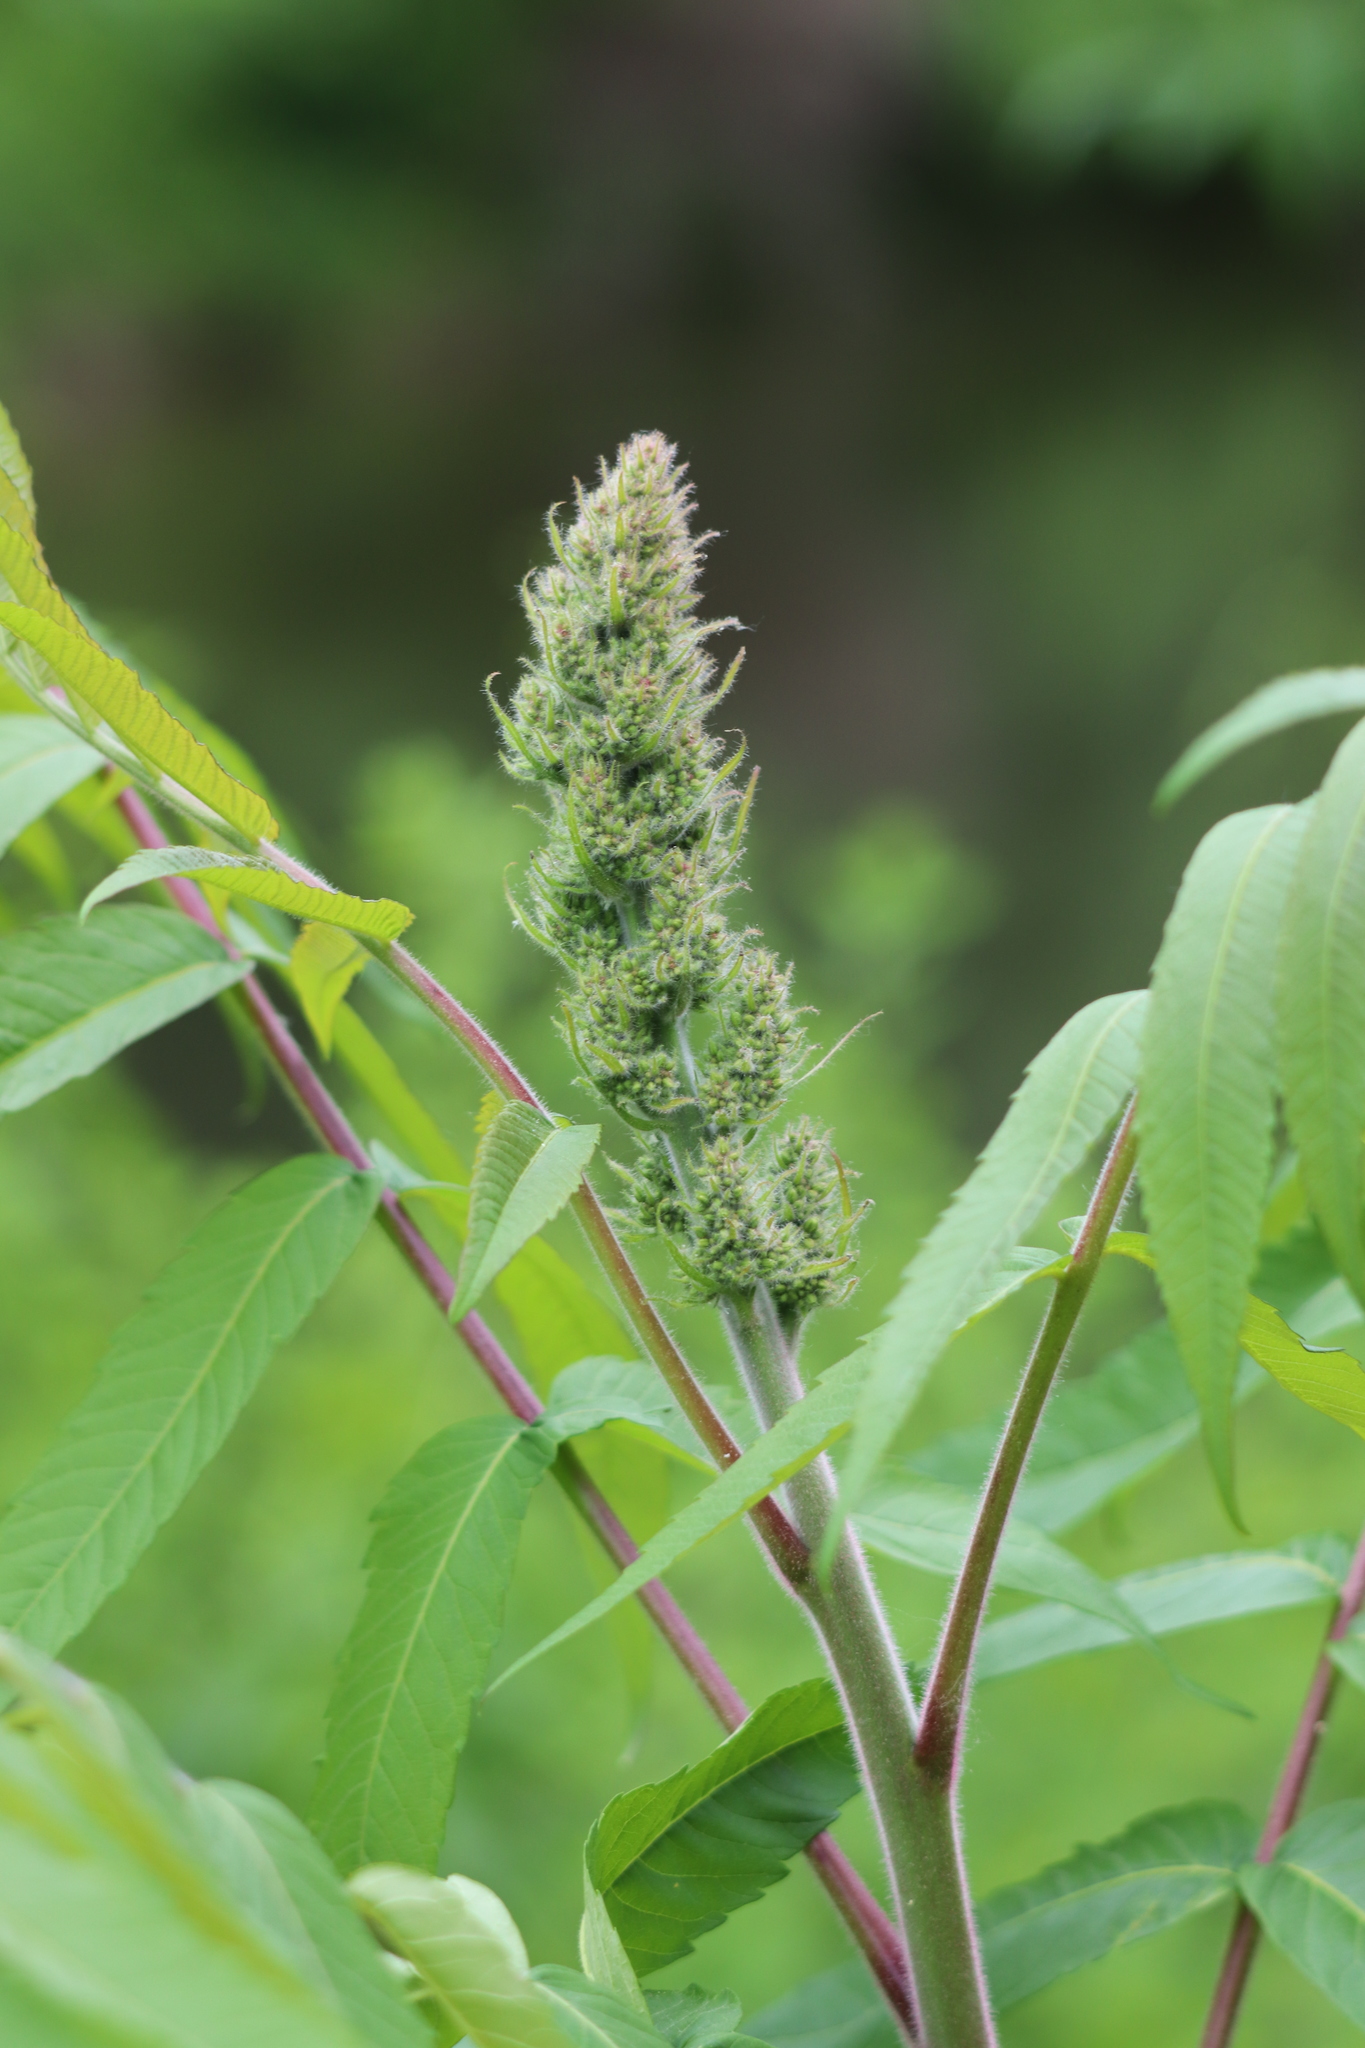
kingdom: Plantae
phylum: Tracheophyta
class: Magnoliopsida
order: Sapindales
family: Anacardiaceae
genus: Rhus
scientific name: Rhus typhina
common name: Staghorn sumac
